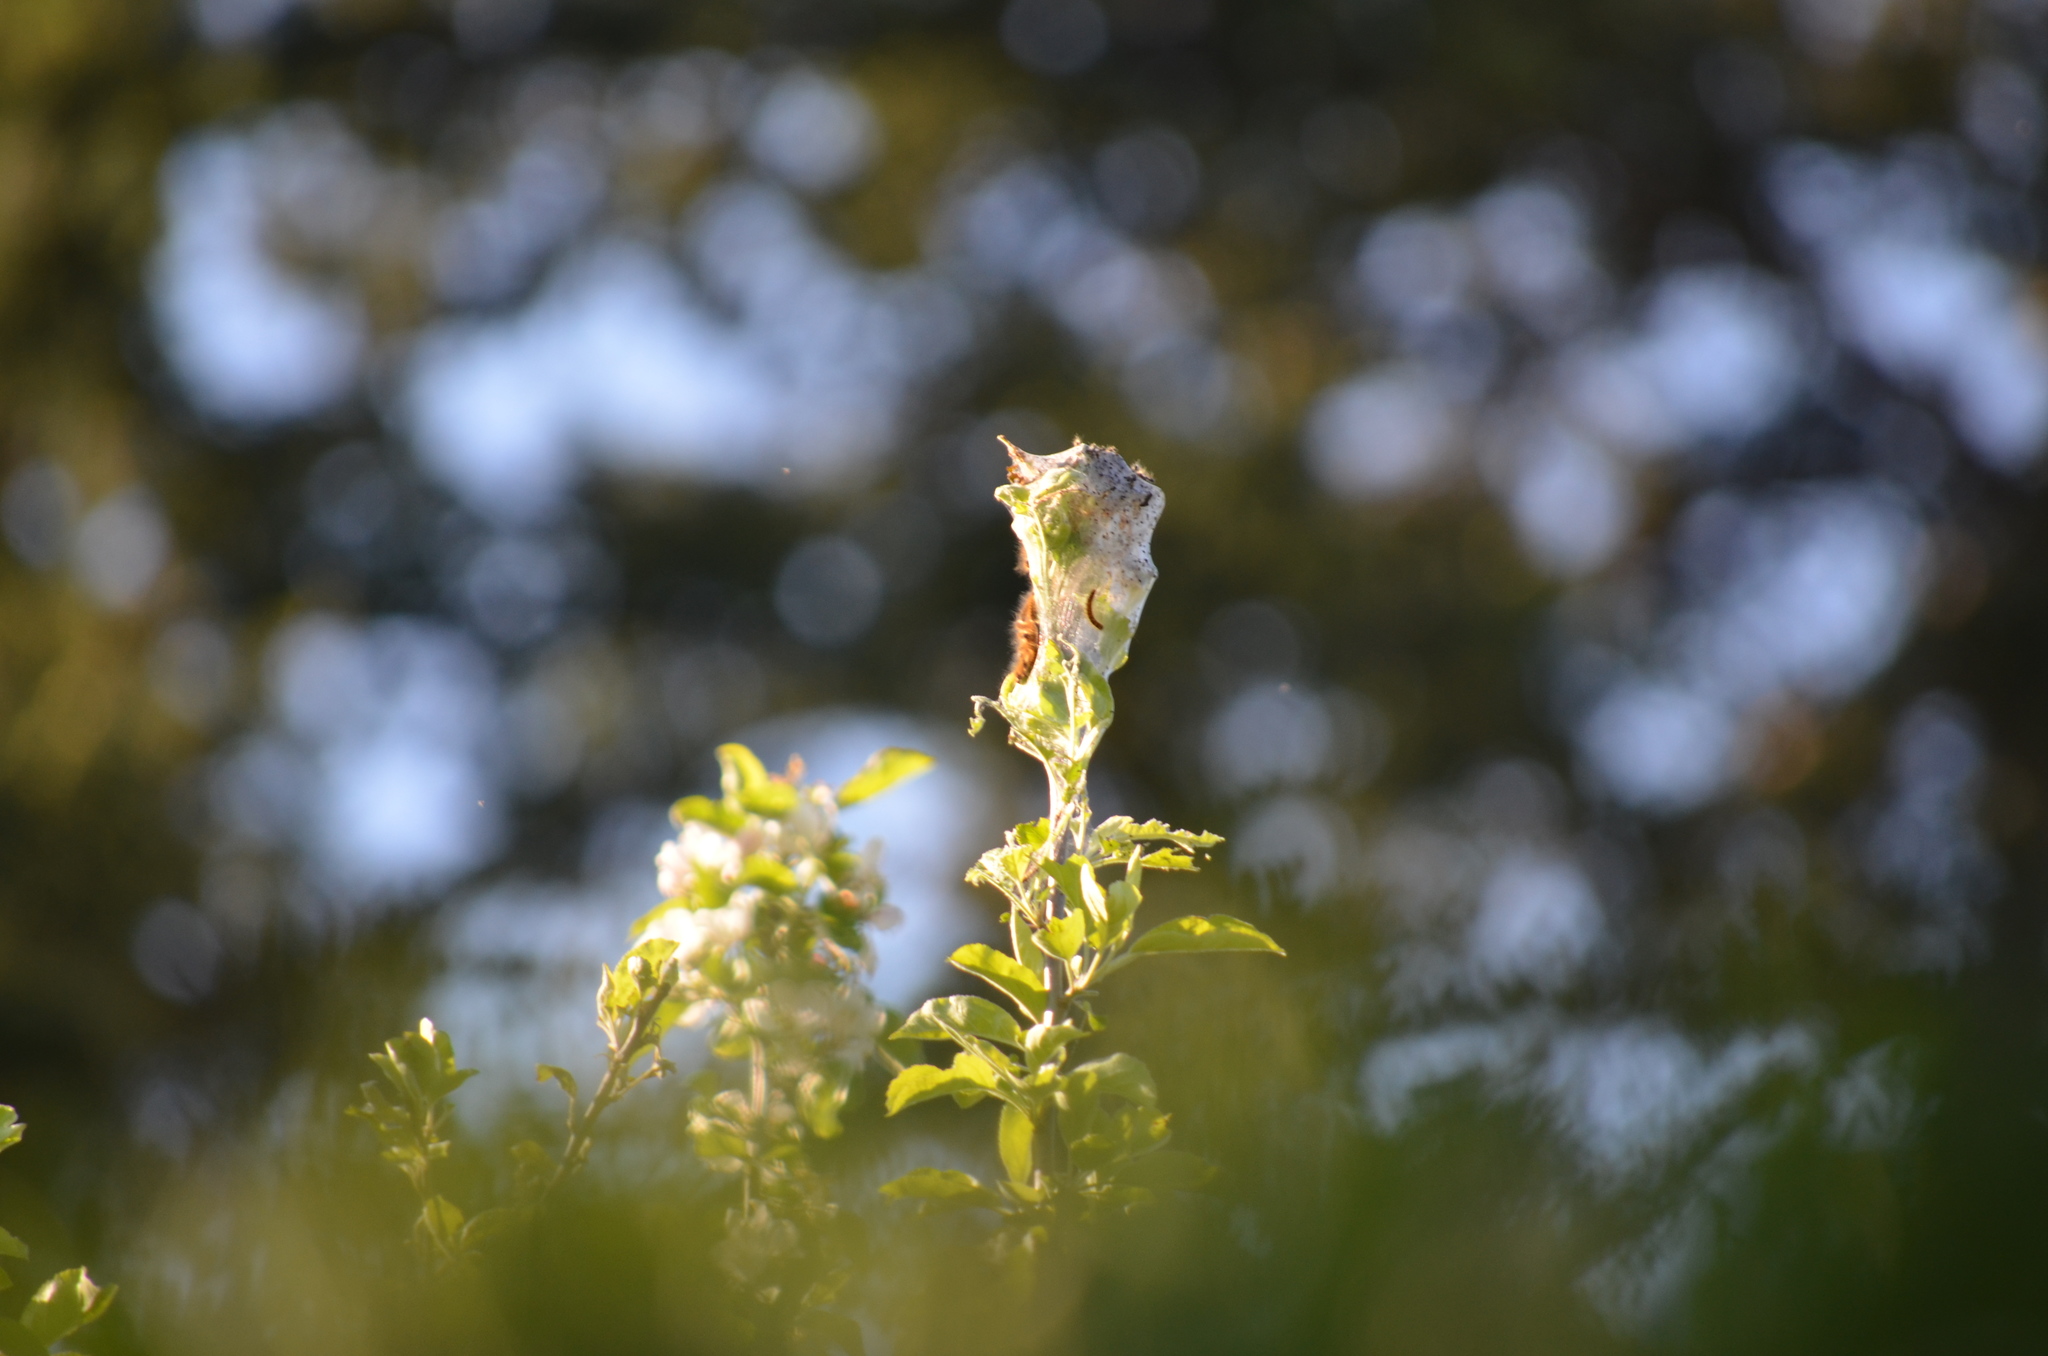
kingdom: Animalia
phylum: Arthropoda
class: Insecta
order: Lepidoptera
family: Lasiocampidae
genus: Malacosoma
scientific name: Malacosoma californica
